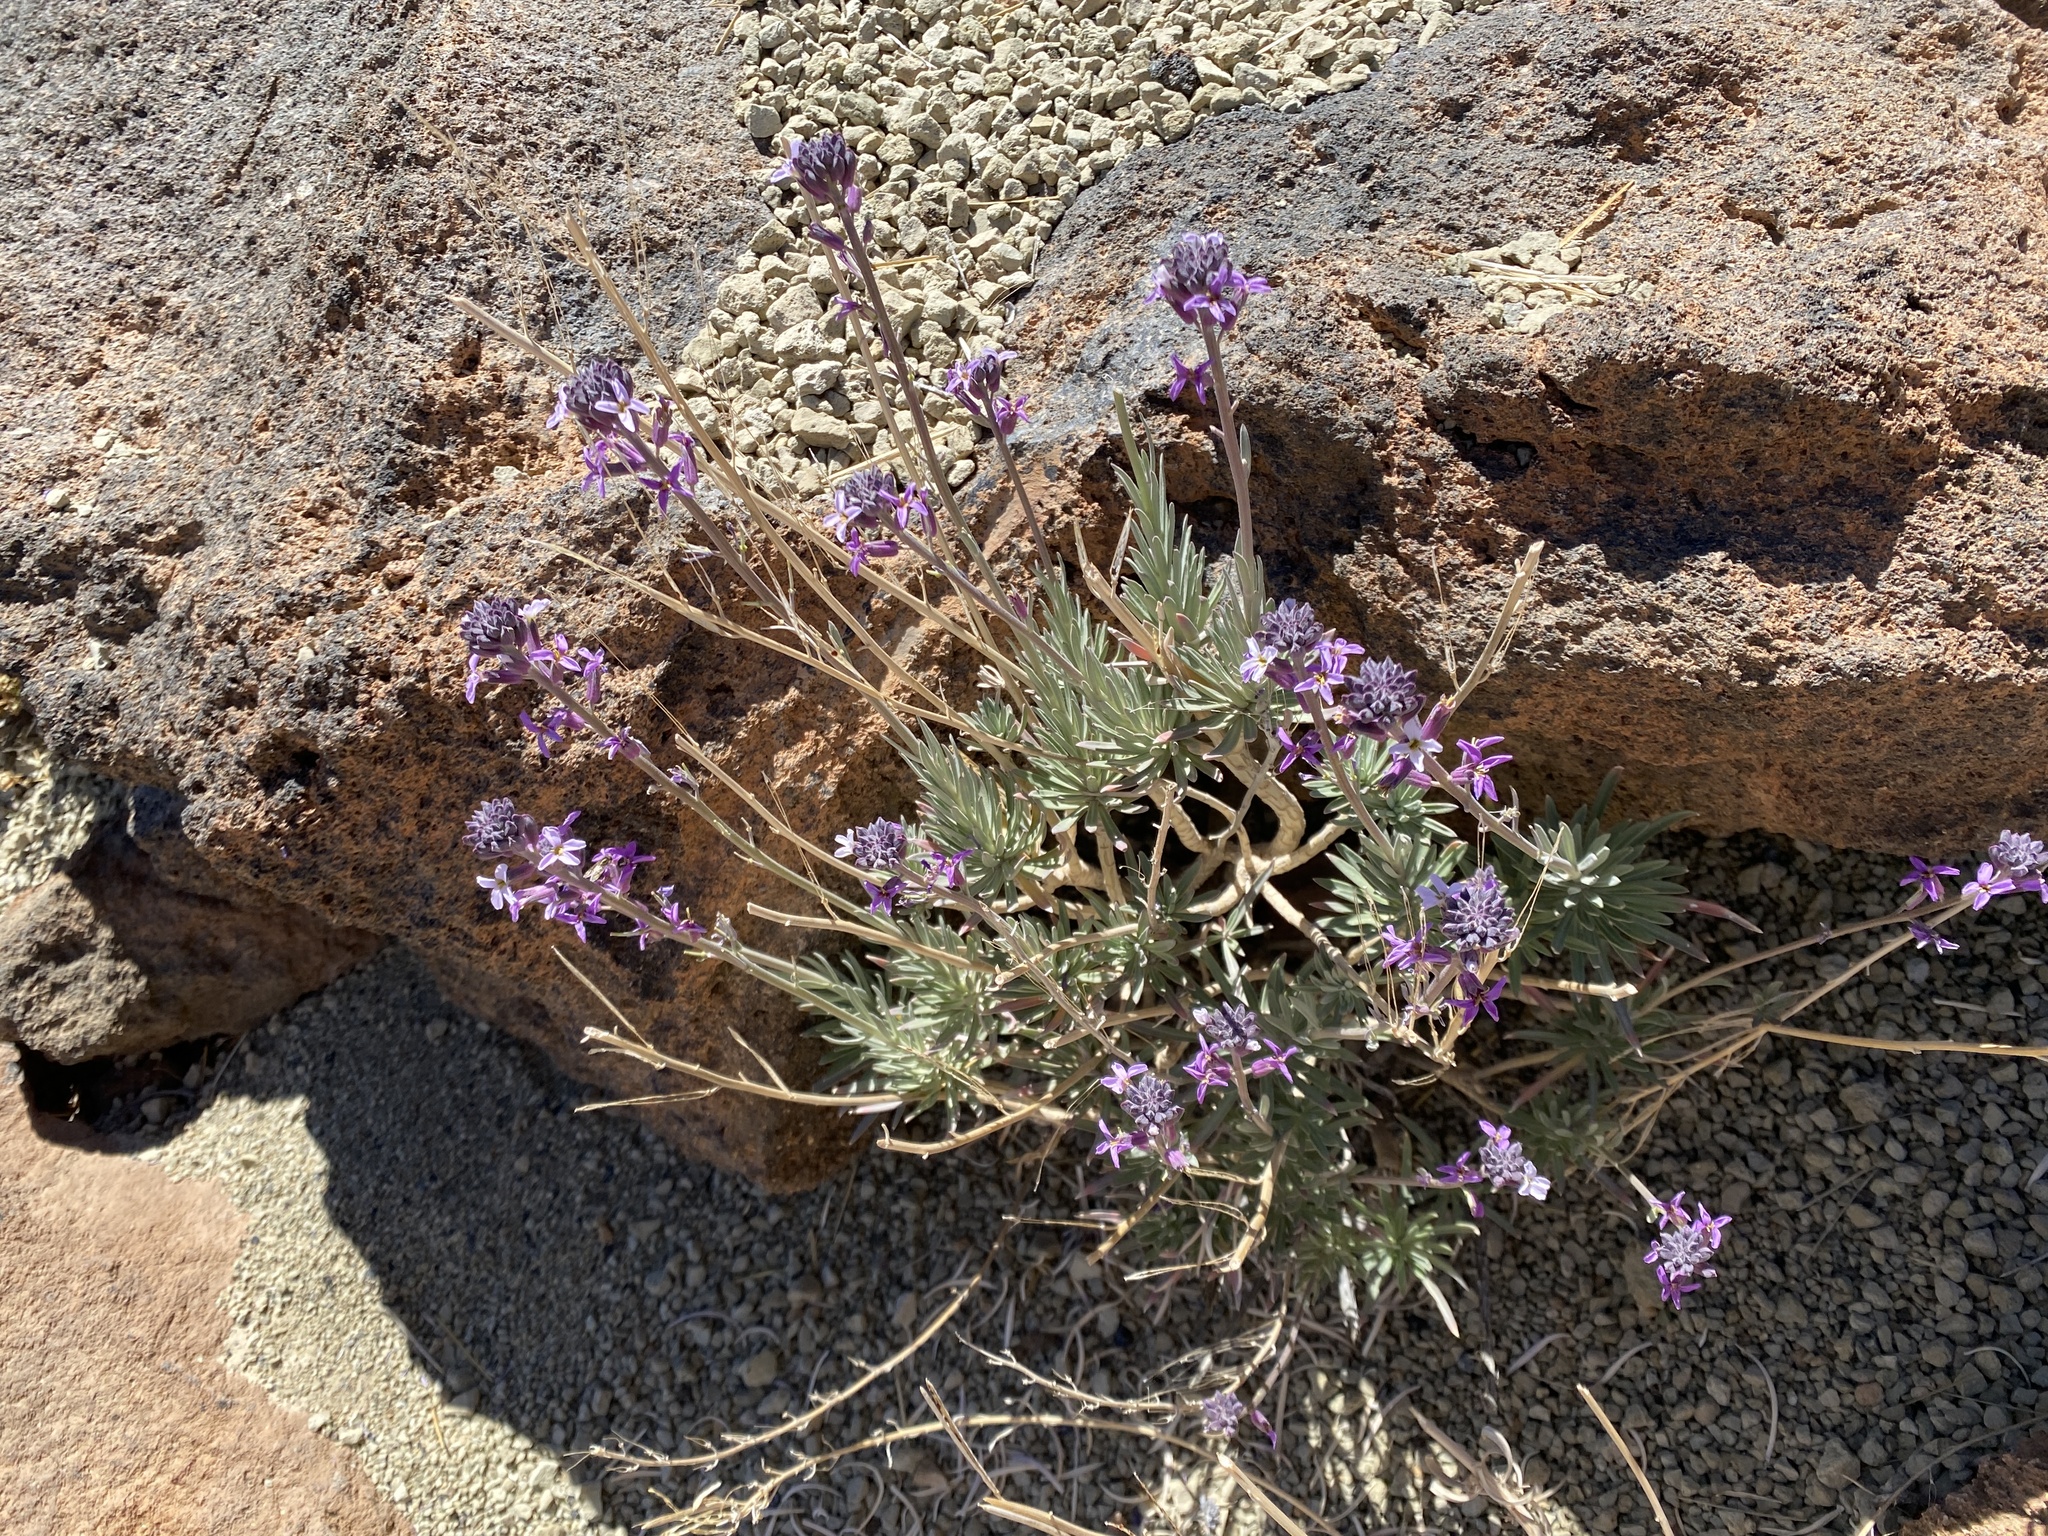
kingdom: Plantae
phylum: Tracheophyta
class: Magnoliopsida
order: Brassicales
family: Brassicaceae
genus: Erysimum
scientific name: Erysimum scoparium
